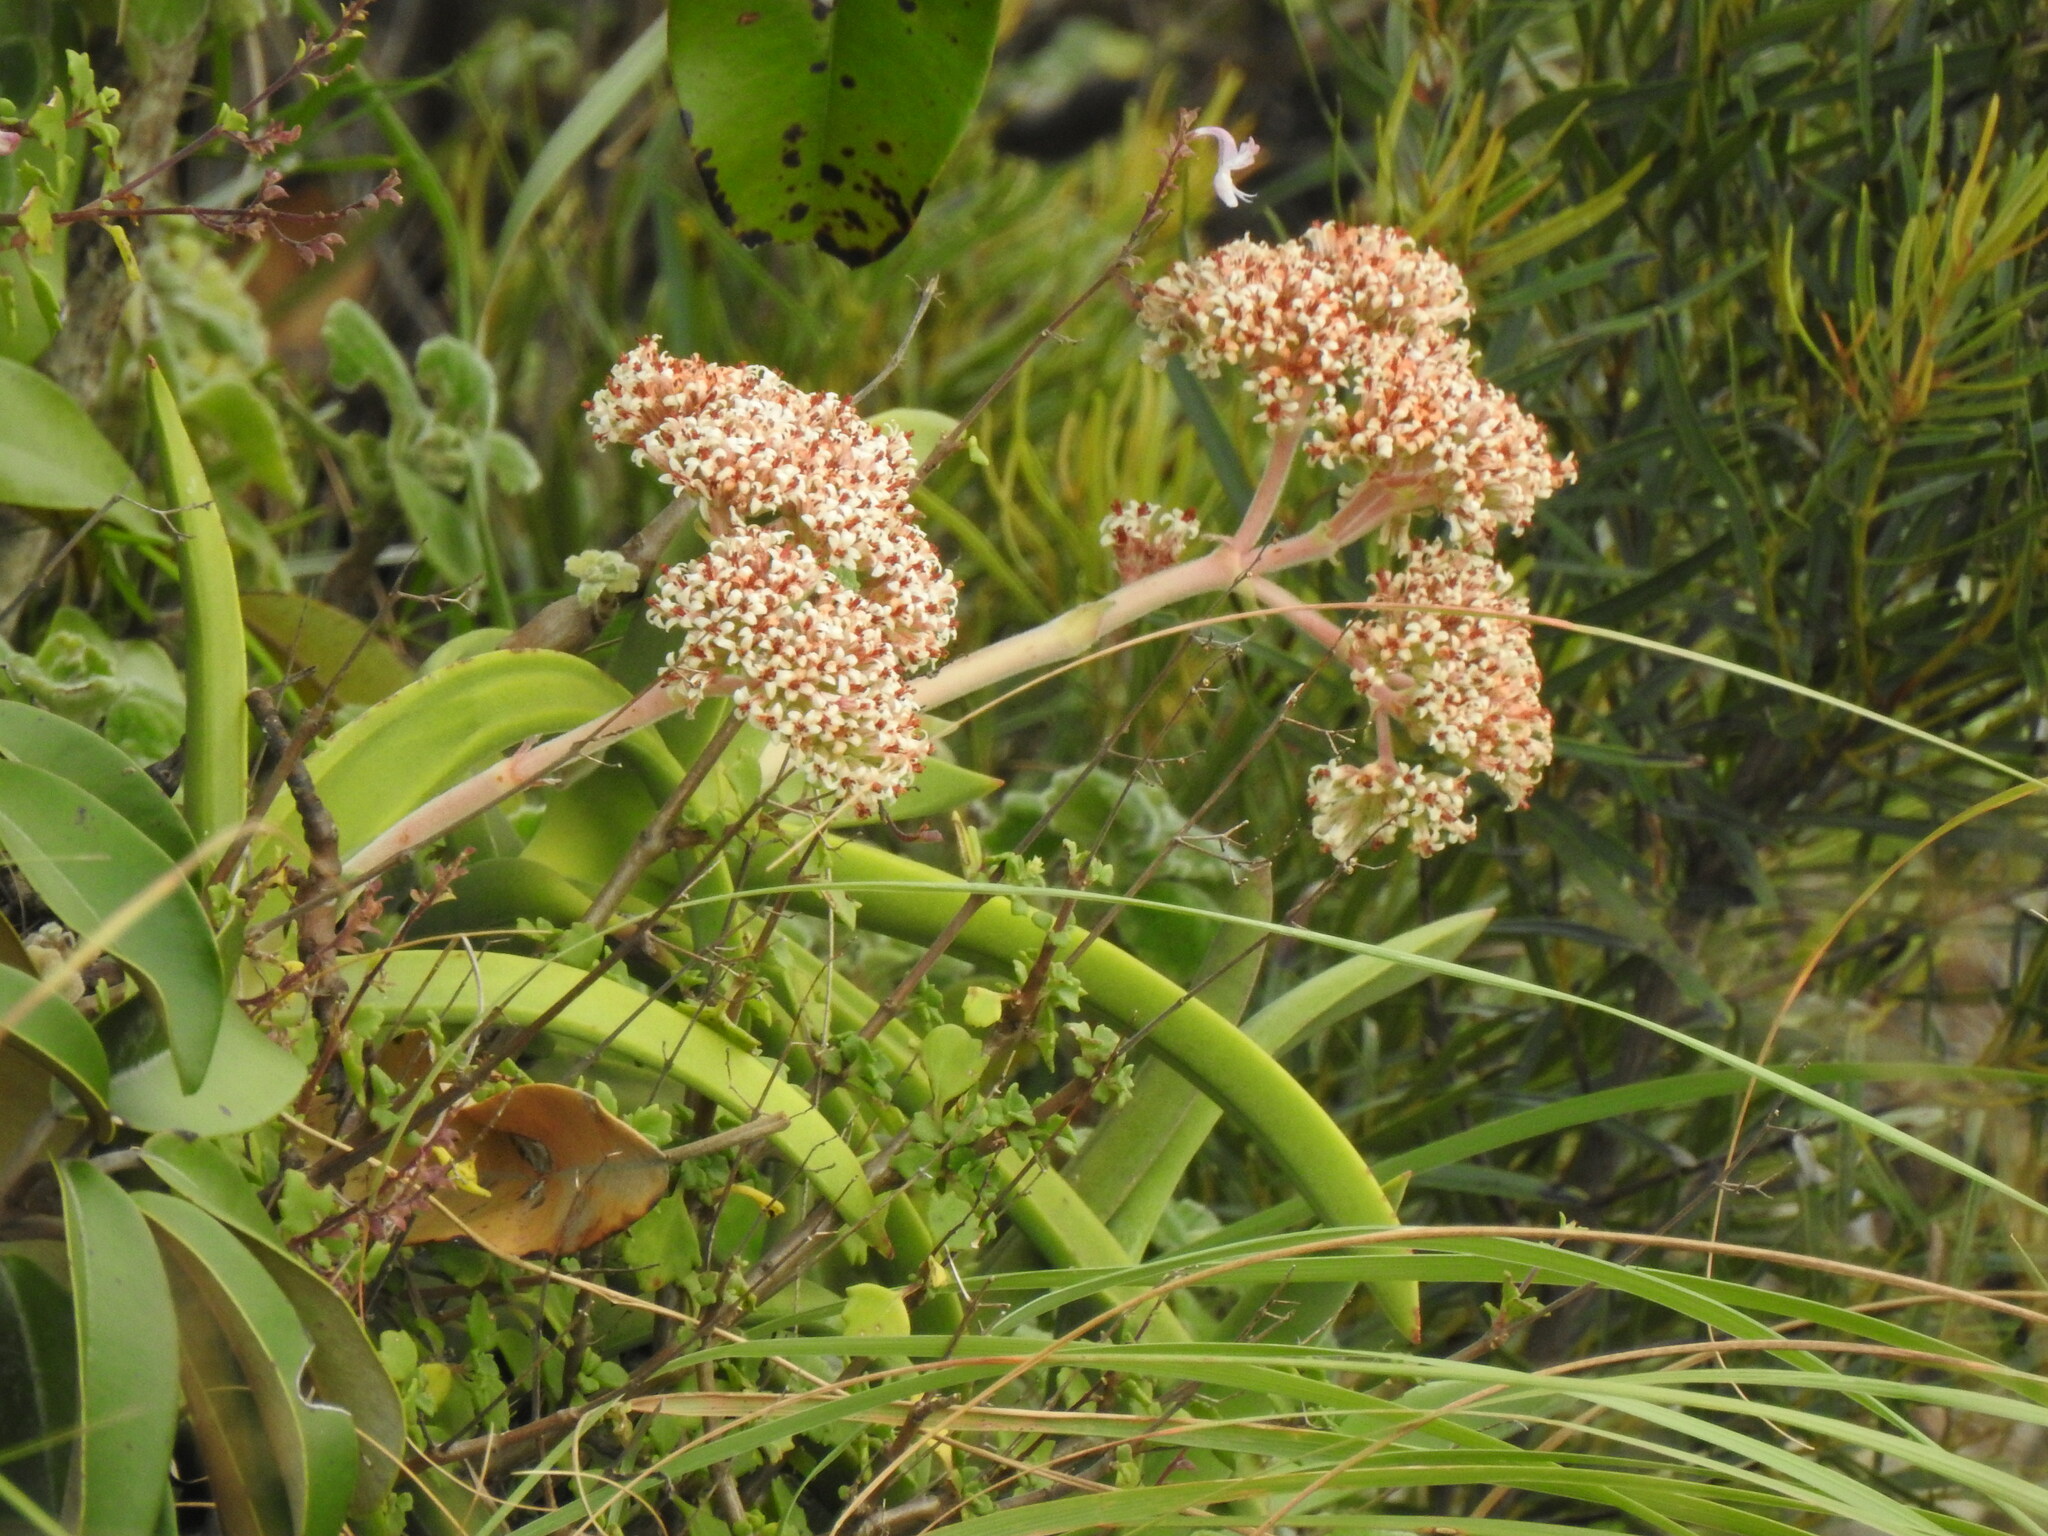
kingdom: Plantae
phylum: Tracheophyta
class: Magnoliopsida
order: Saxifragales
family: Crassulaceae
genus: Crassula
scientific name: Crassula perfoliata
